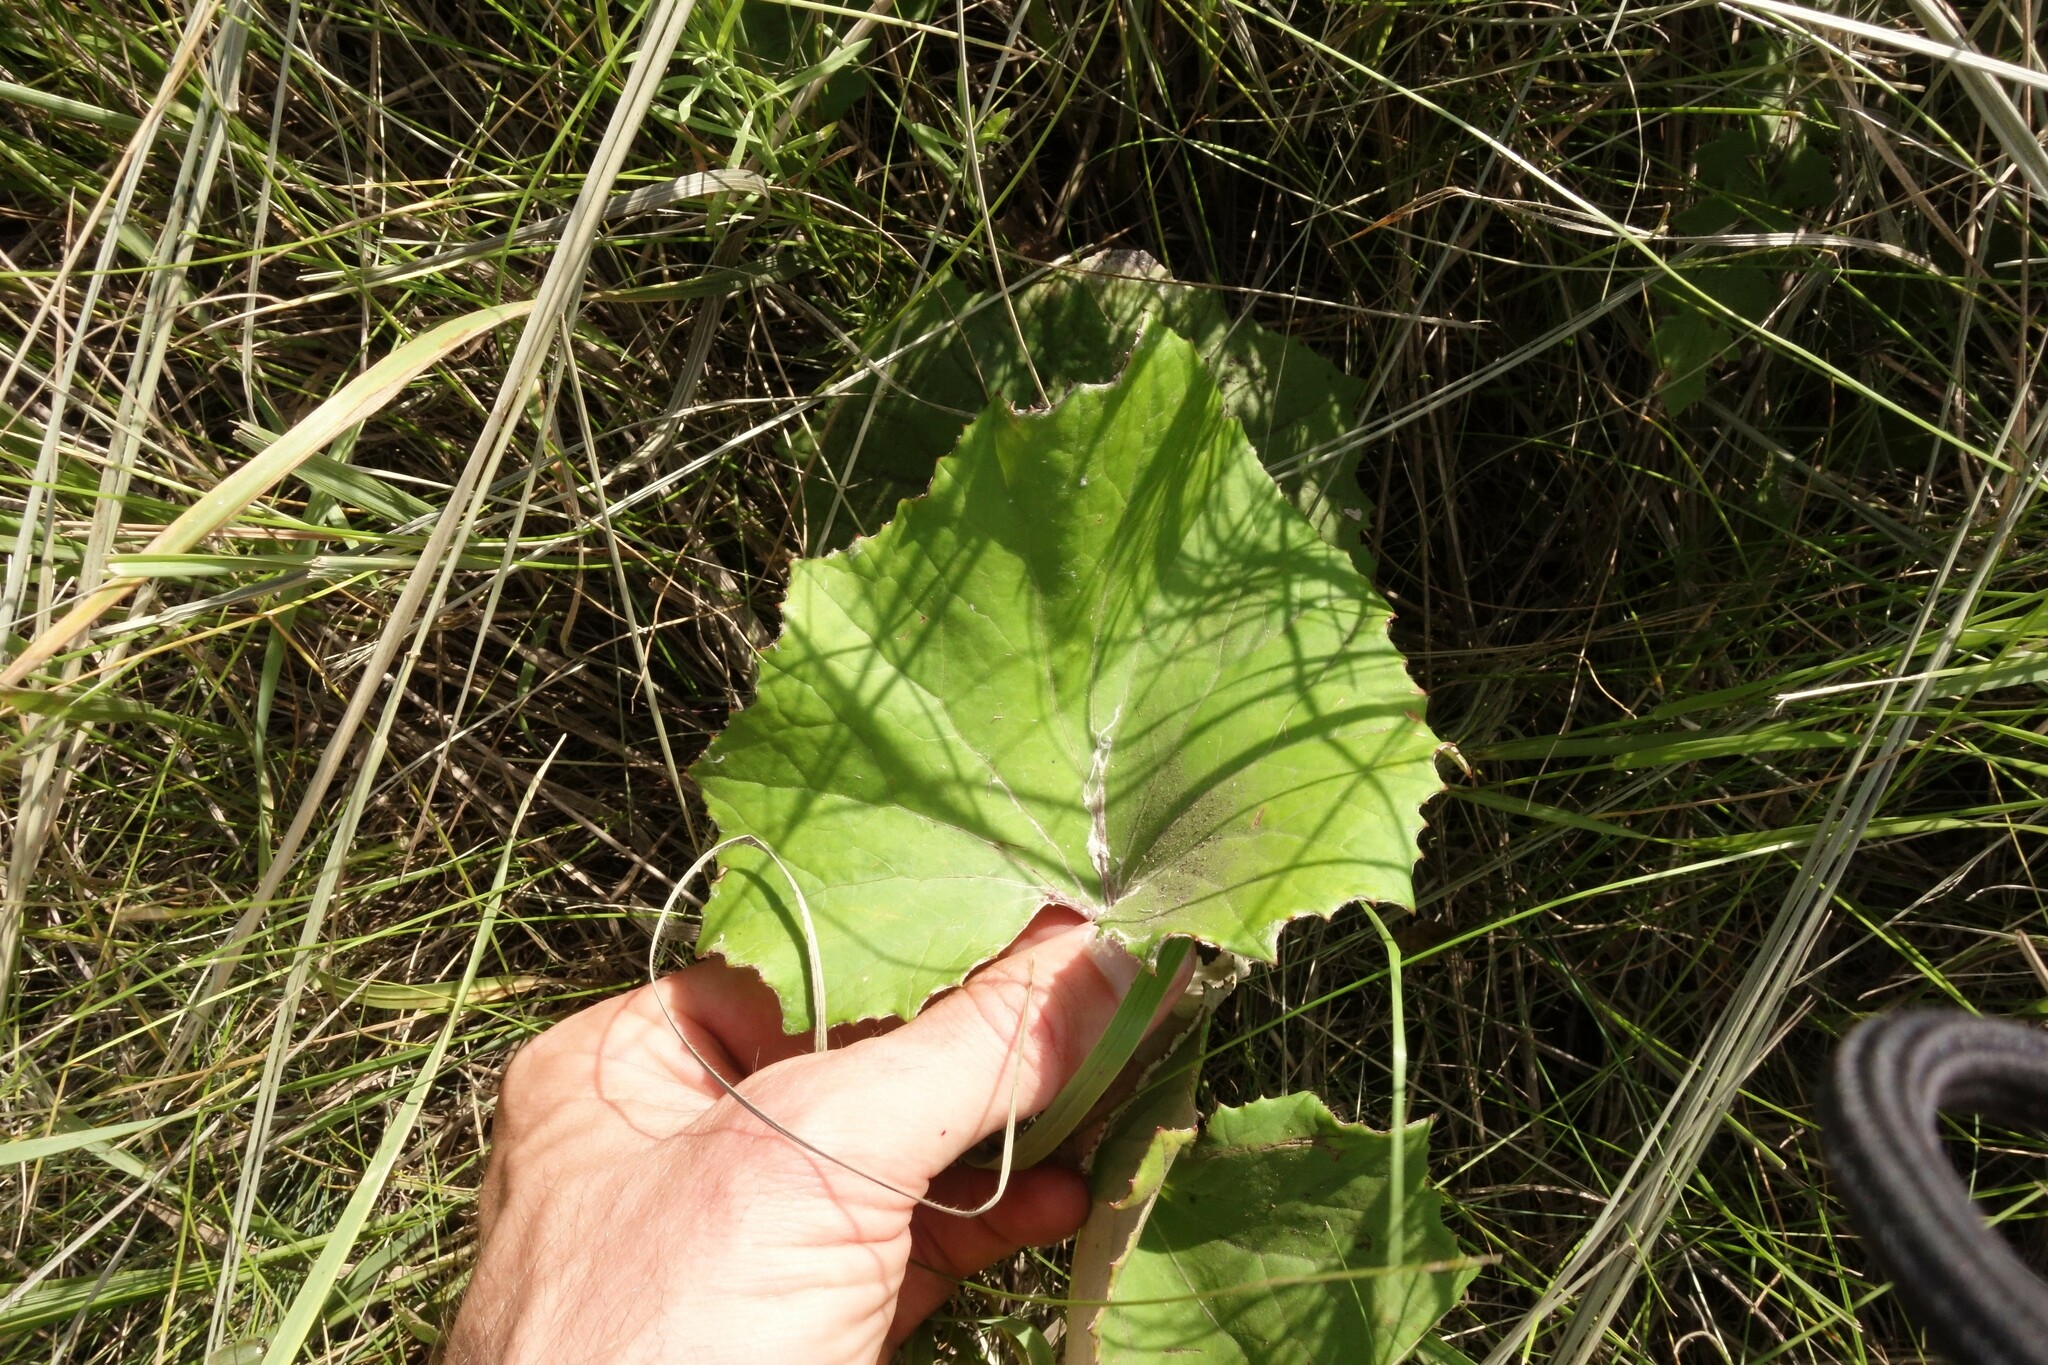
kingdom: Plantae
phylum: Tracheophyta
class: Magnoliopsida
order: Asterales
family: Asteraceae
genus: Tussilago
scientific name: Tussilago farfara
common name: Coltsfoot
